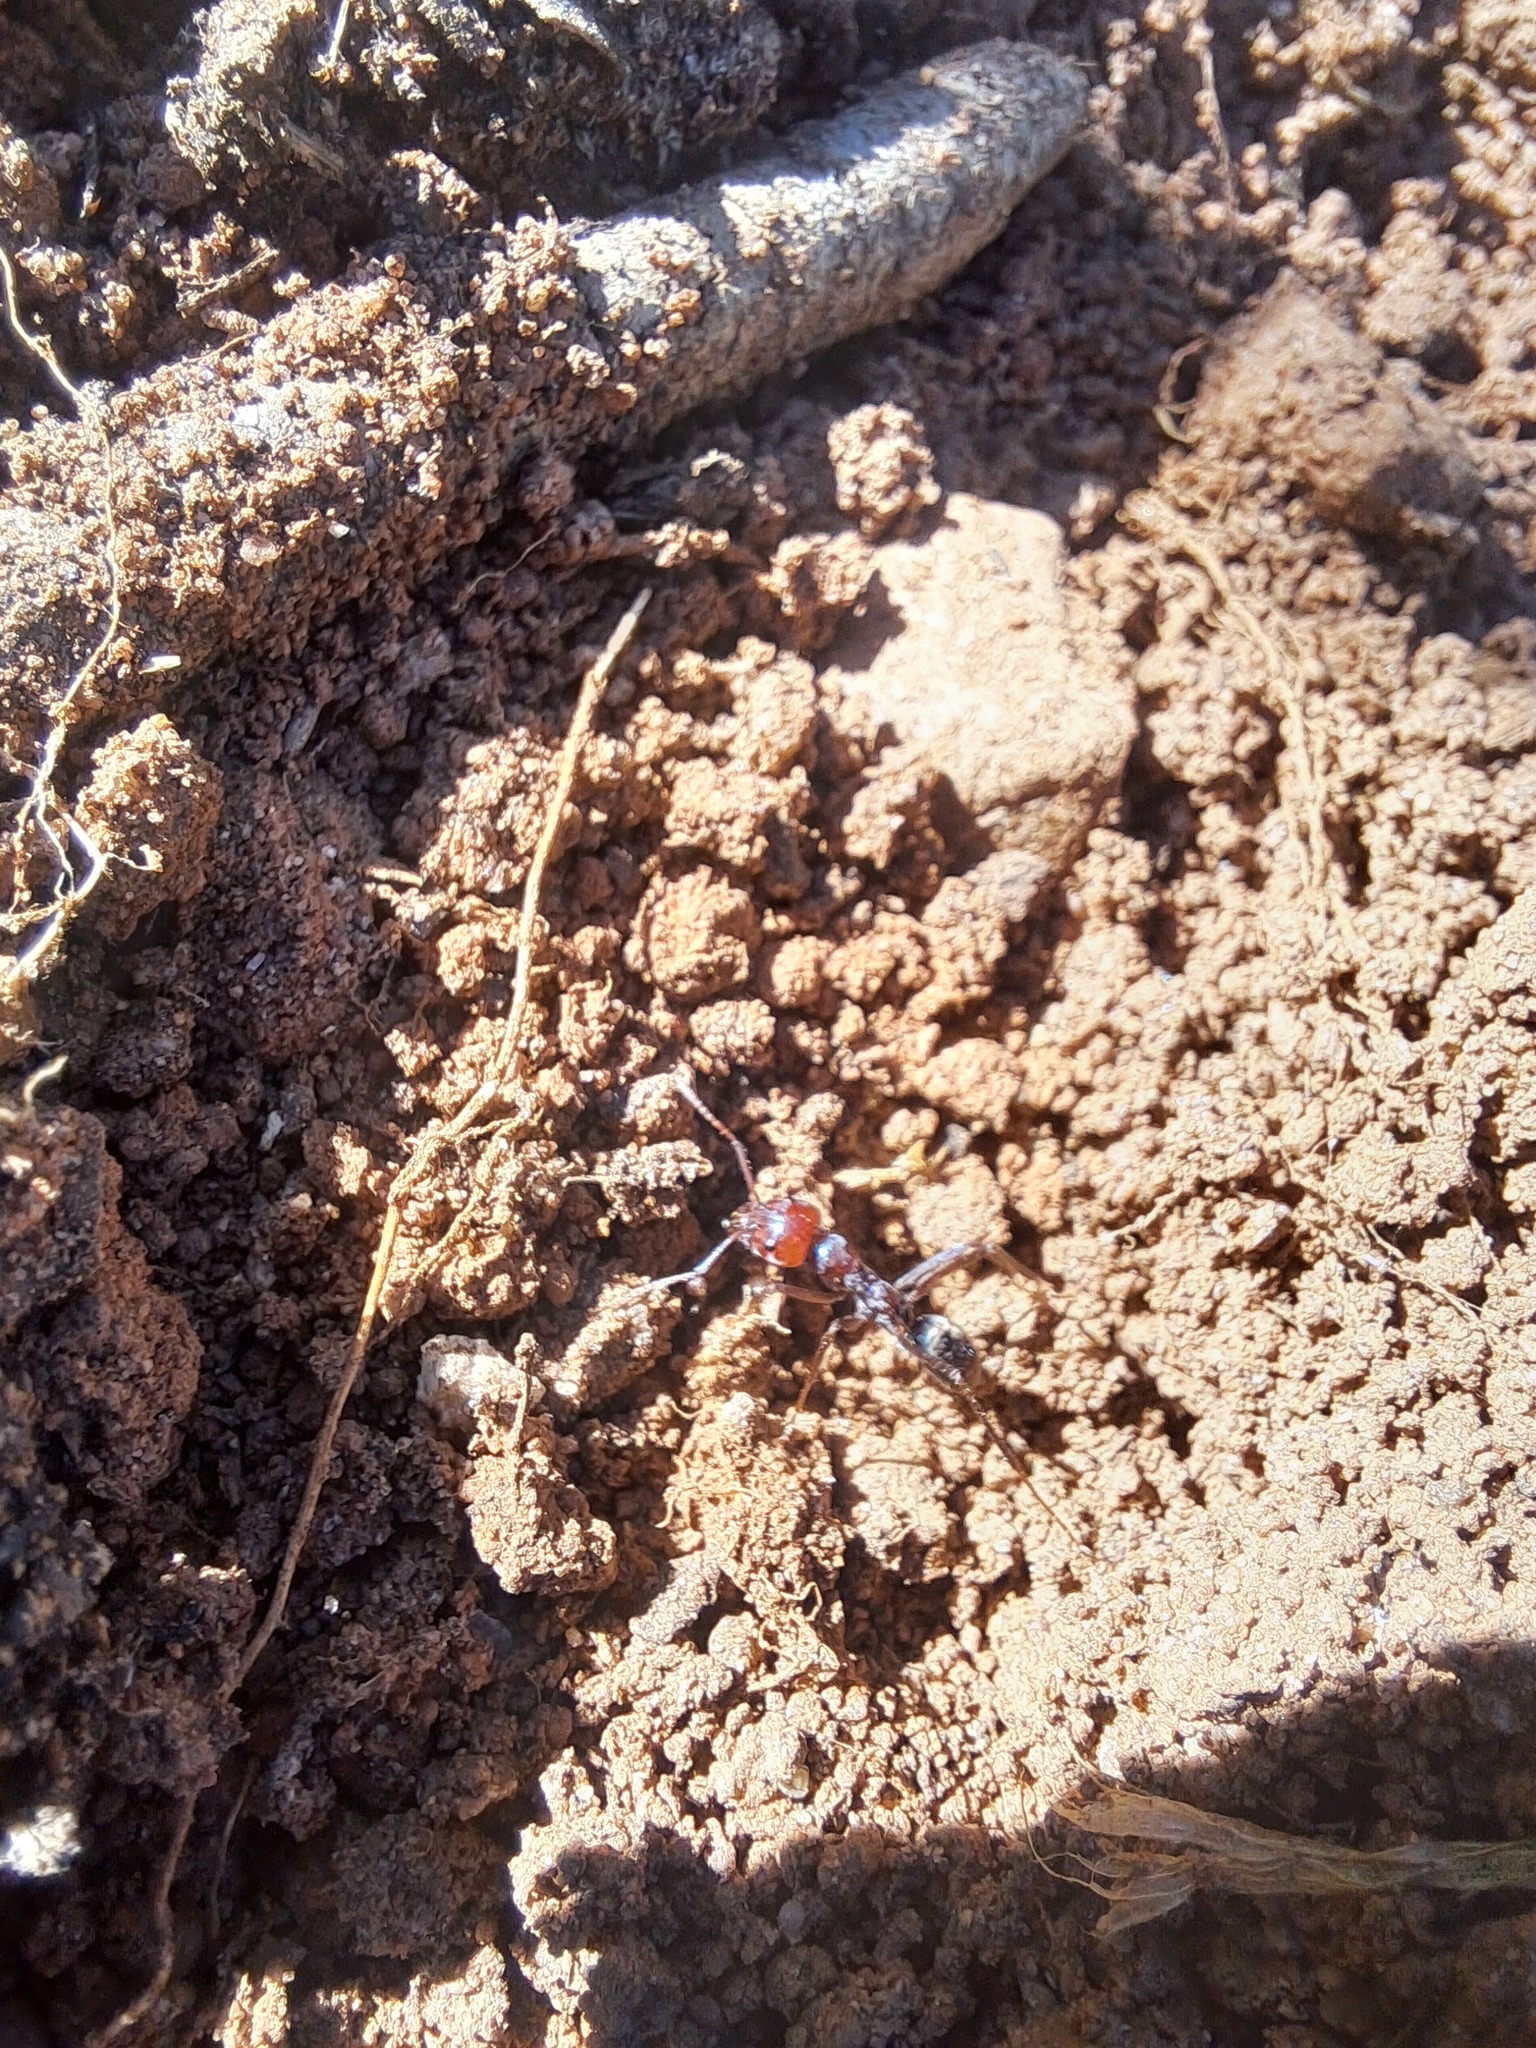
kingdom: Animalia
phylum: Arthropoda
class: Insecta
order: Hymenoptera
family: Formicidae
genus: Iridomyrmex
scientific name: Iridomyrmex purpureus
